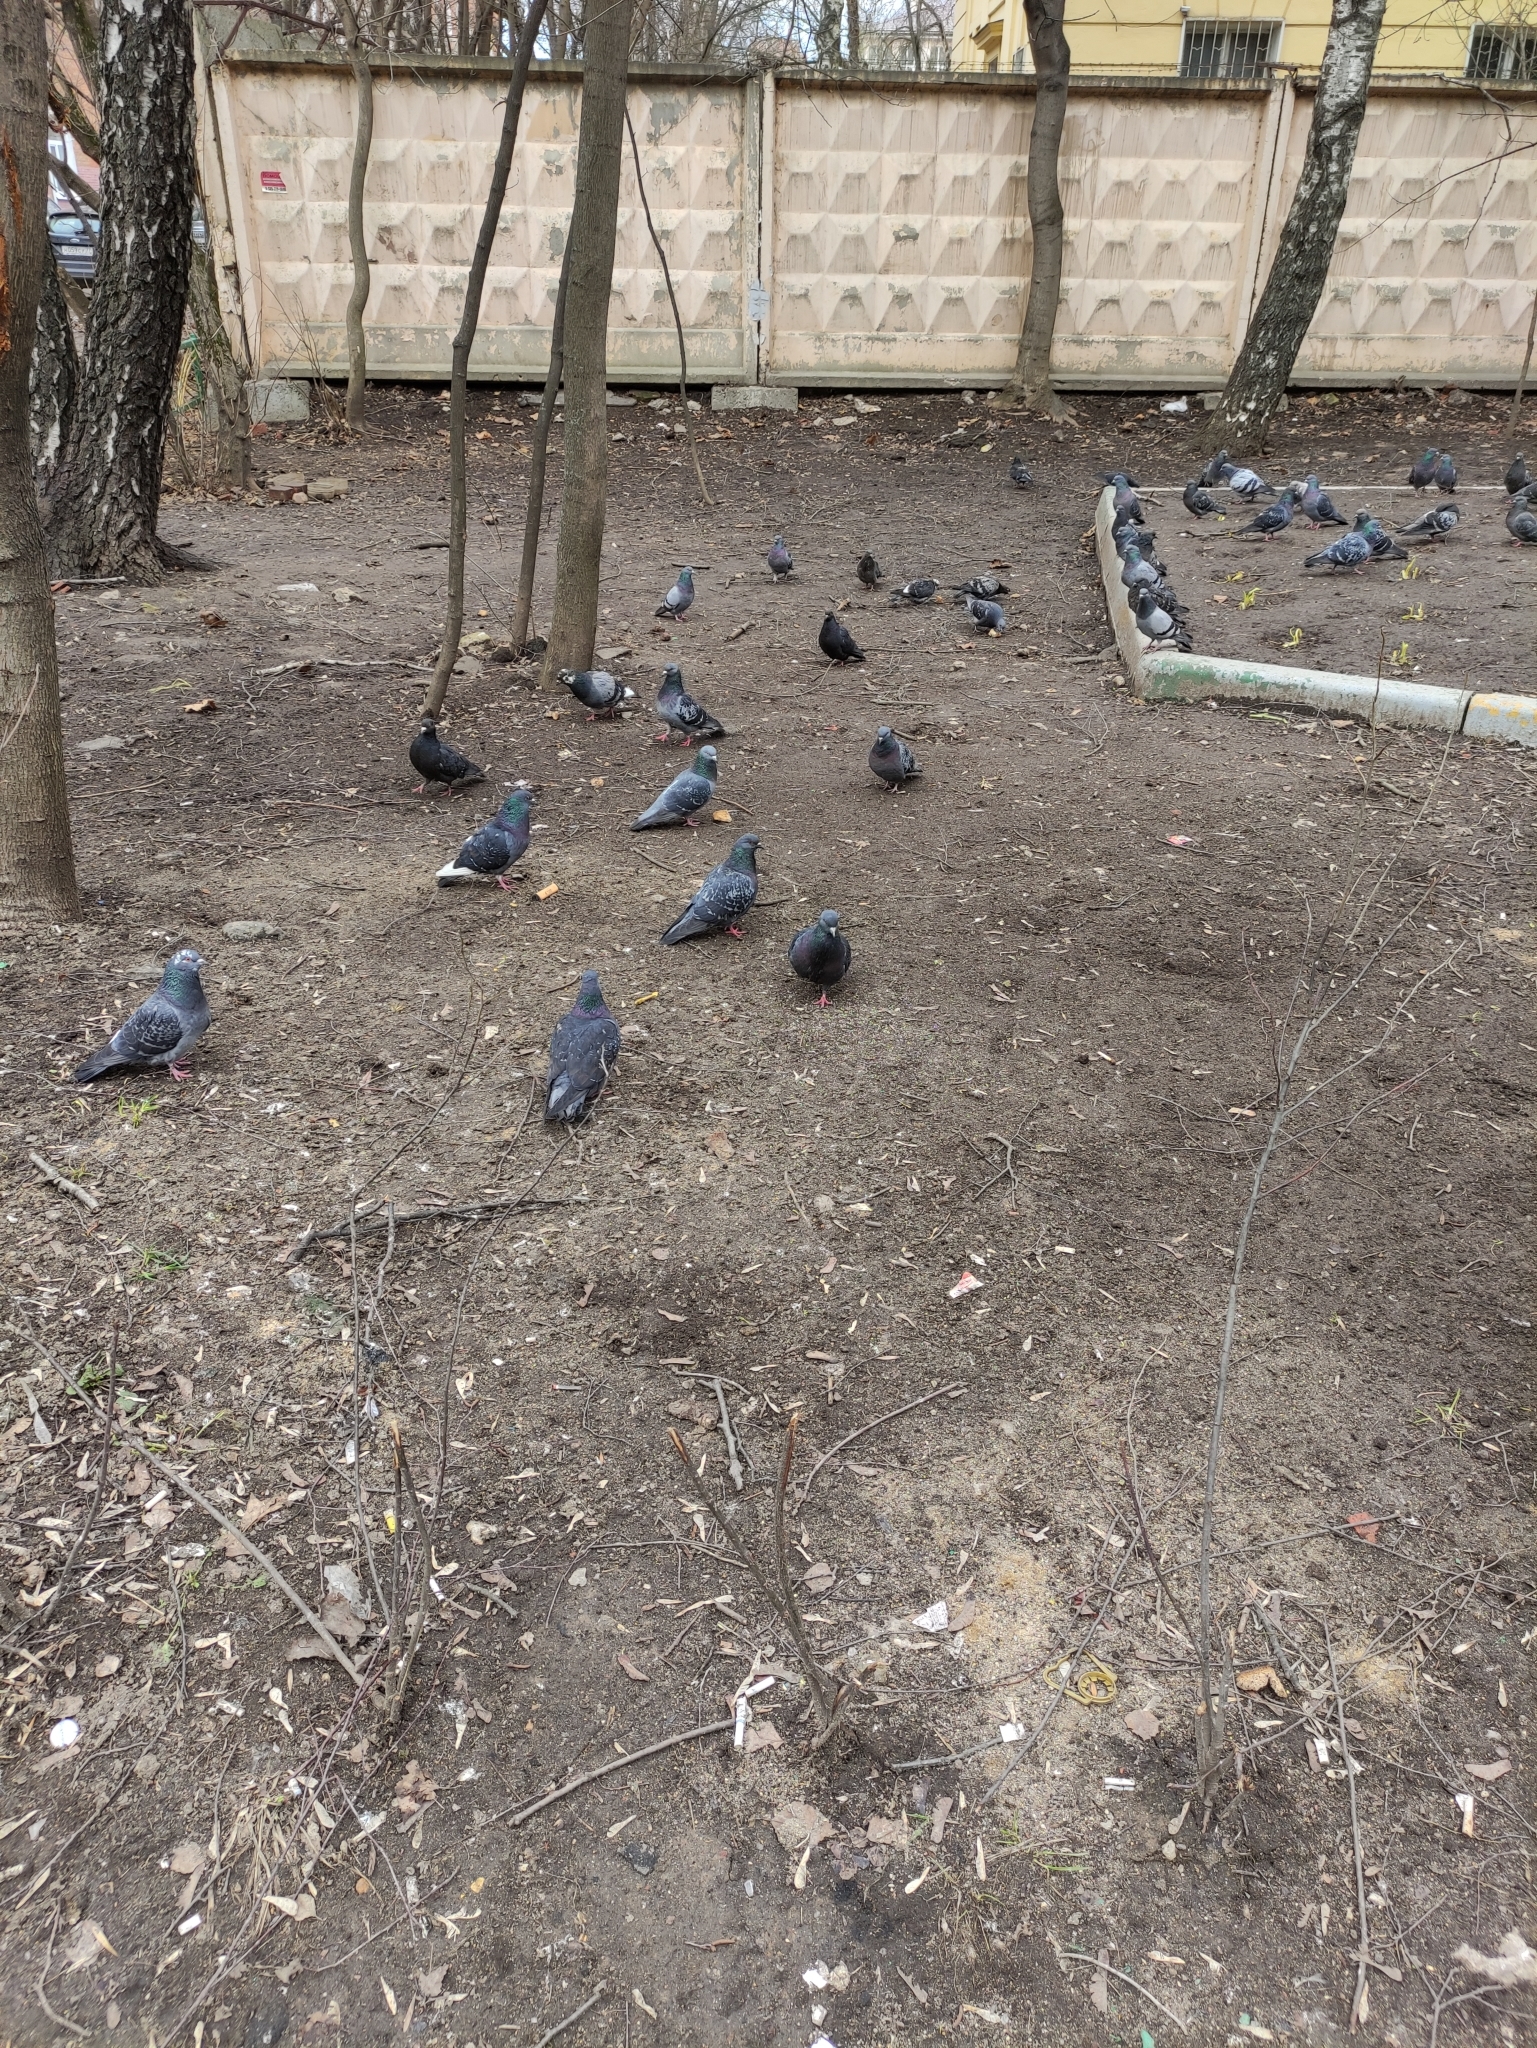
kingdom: Animalia
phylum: Chordata
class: Aves
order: Columbiformes
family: Columbidae
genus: Columba
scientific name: Columba livia
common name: Rock pigeon
